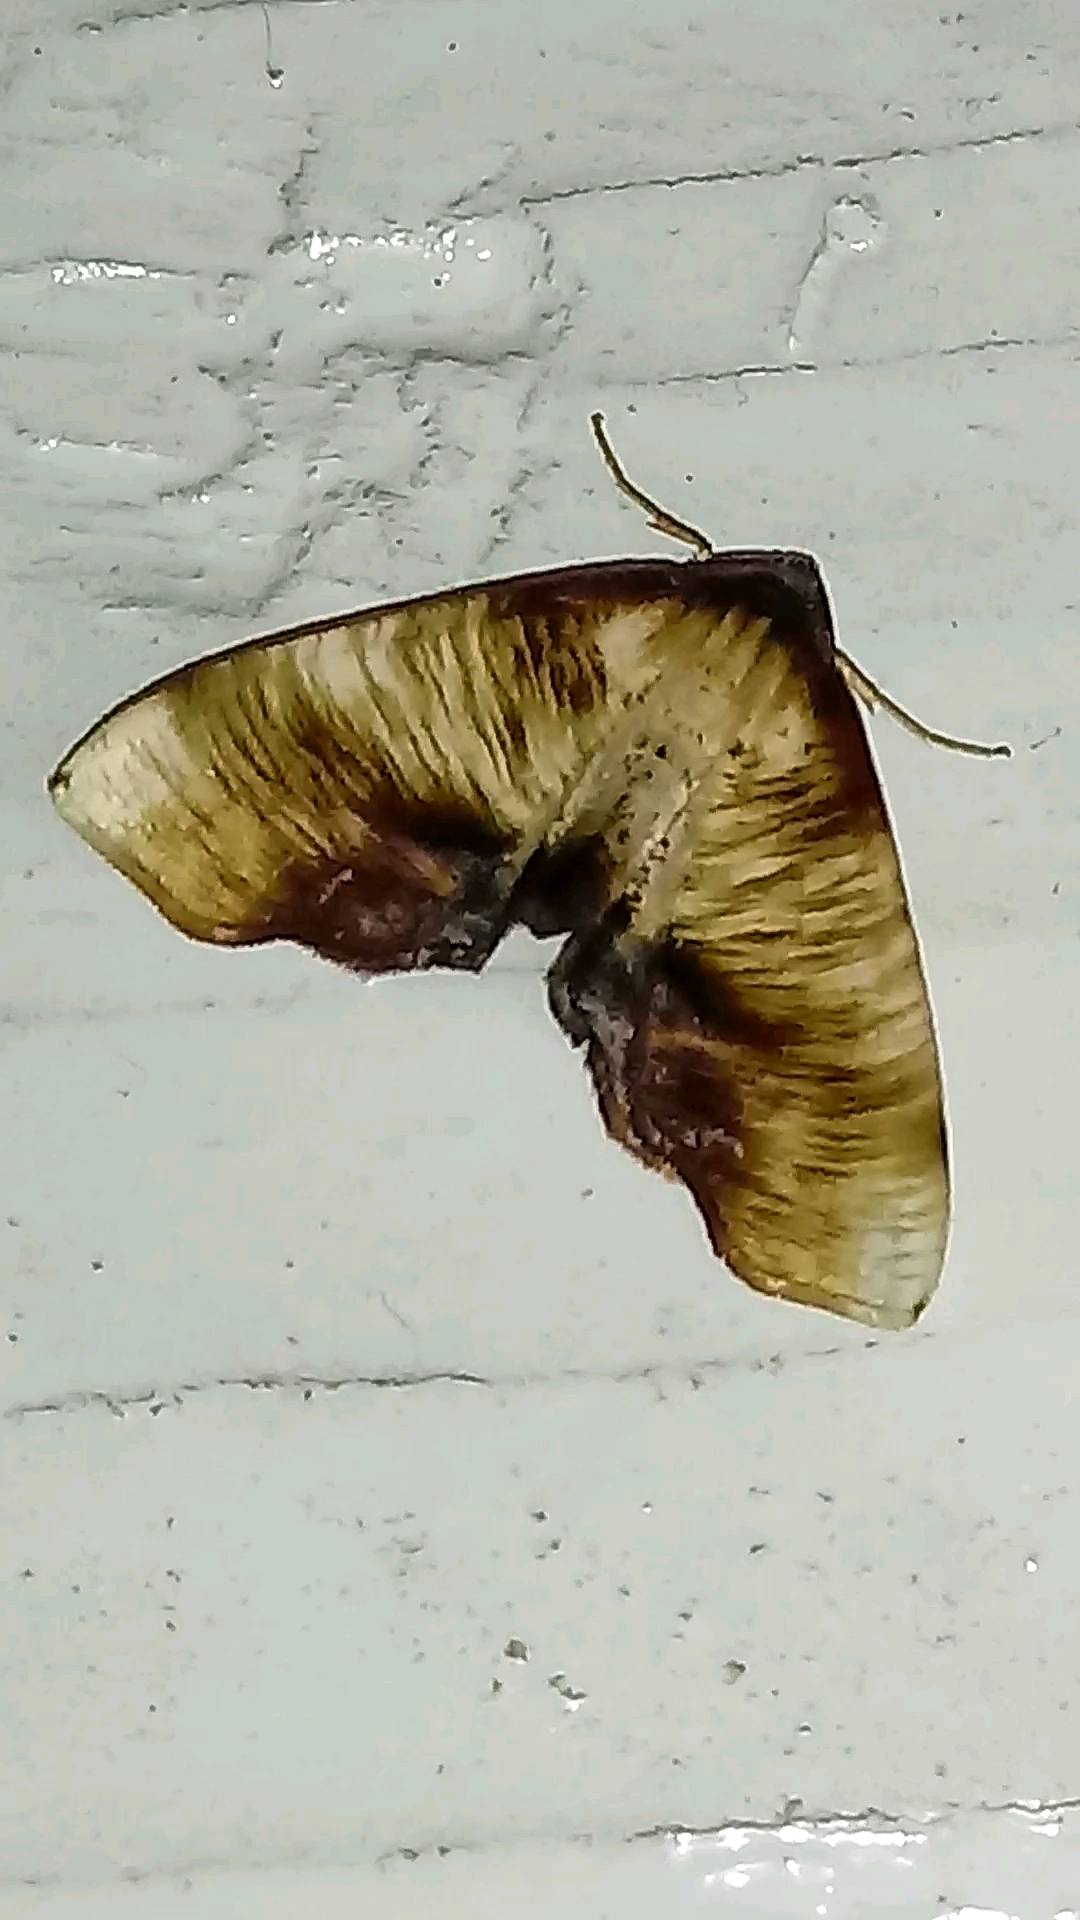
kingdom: Animalia
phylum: Arthropoda
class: Insecta
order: Lepidoptera
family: Geometridae
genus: Plagodis
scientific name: Plagodis dolabraria
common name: Scorched wing
